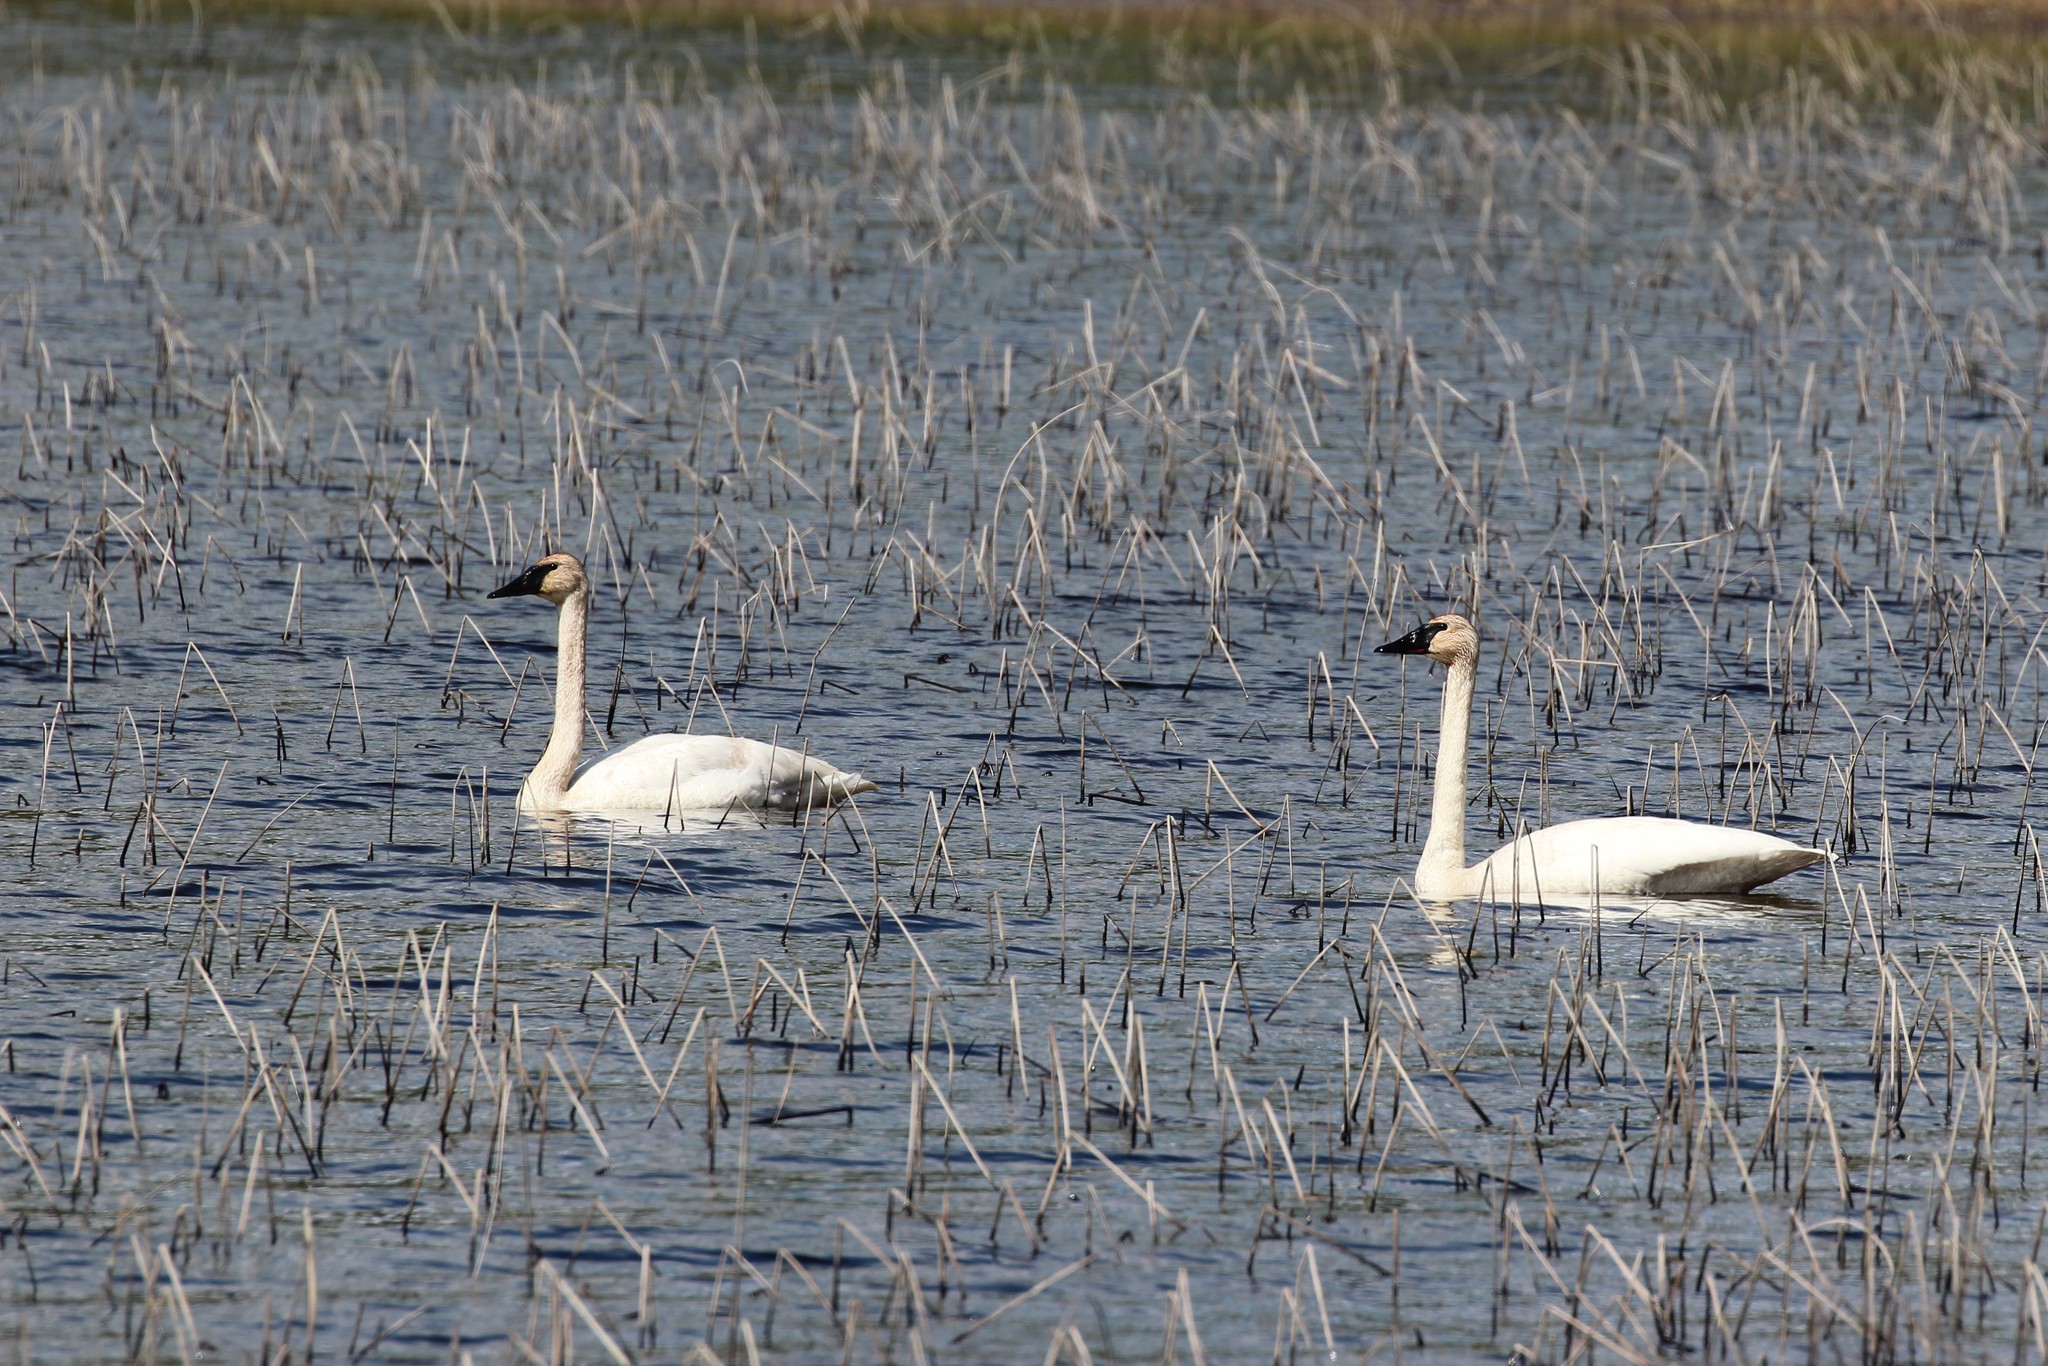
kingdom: Animalia
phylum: Chordata
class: Aves
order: Anseriformes
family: Anatidae
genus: Cygnus
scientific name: Cygnus buccinator
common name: Trumpeter swan
